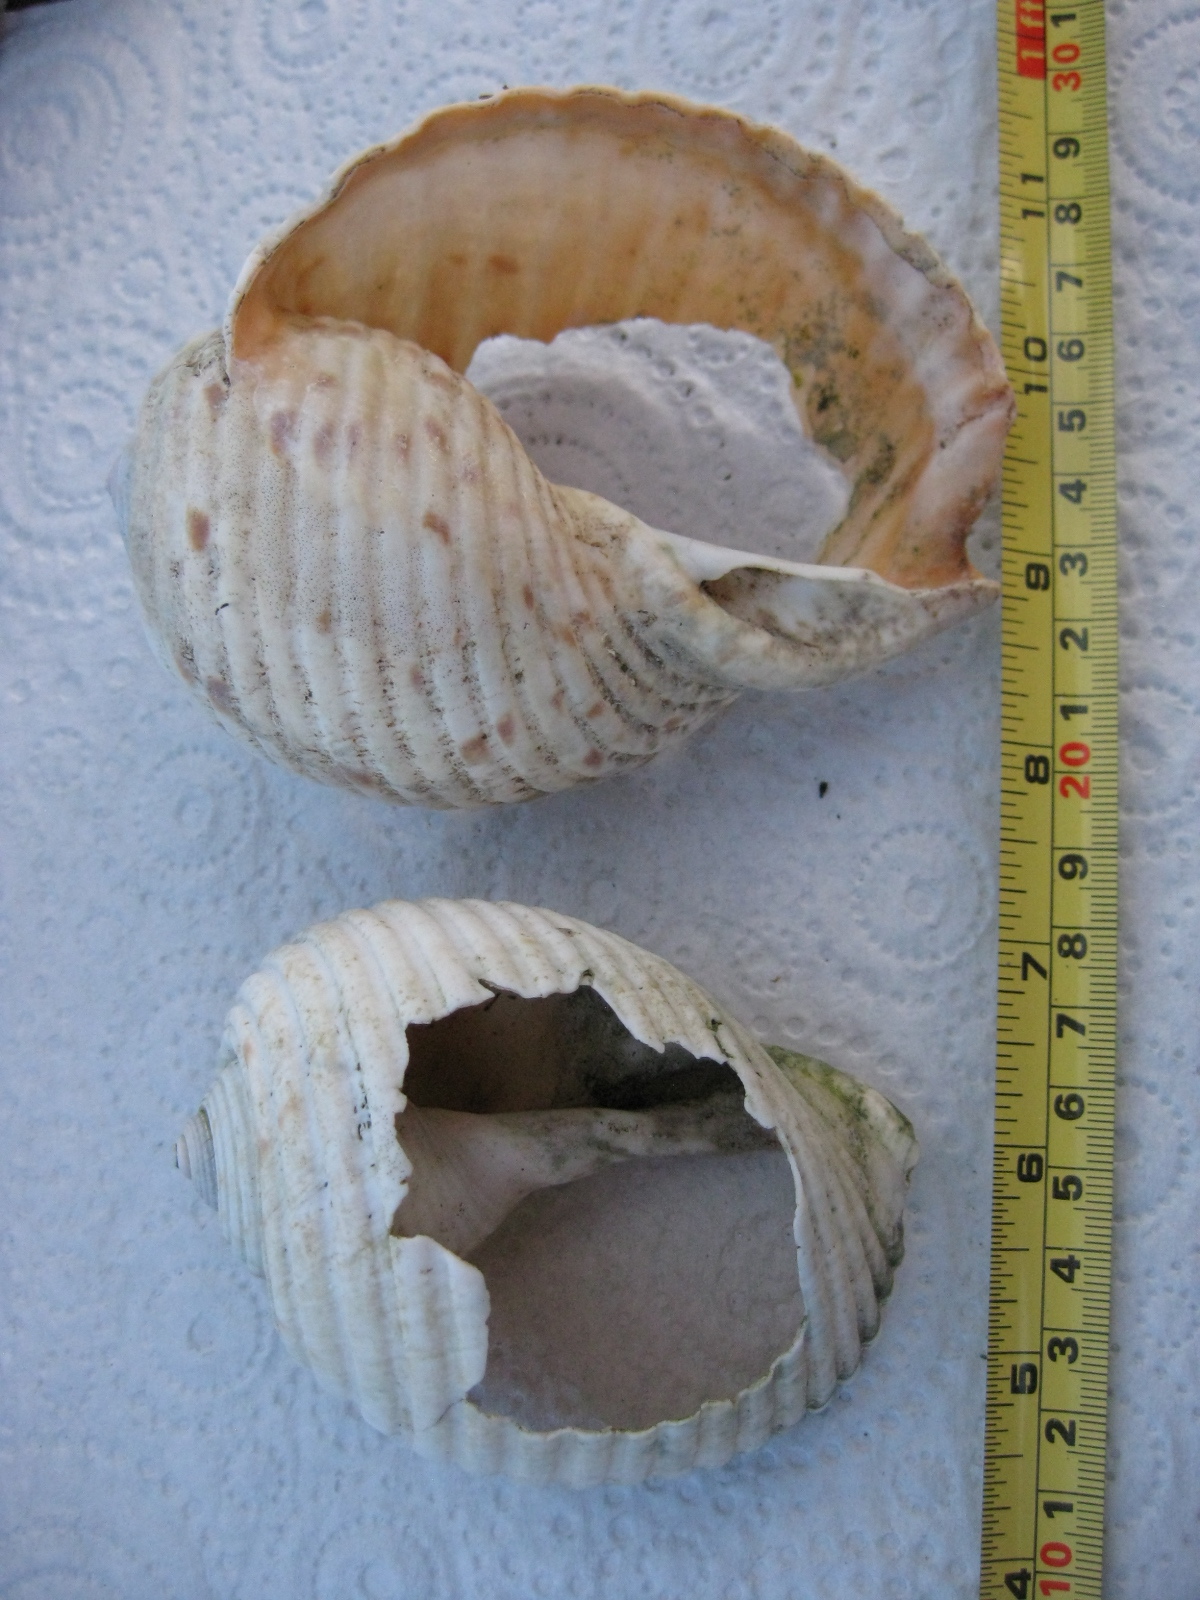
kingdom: Animalia
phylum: Mollusca
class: Gastropoda
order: Littorinimorpha
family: Tonnidae
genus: Tonna
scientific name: Tonna tankervillii
